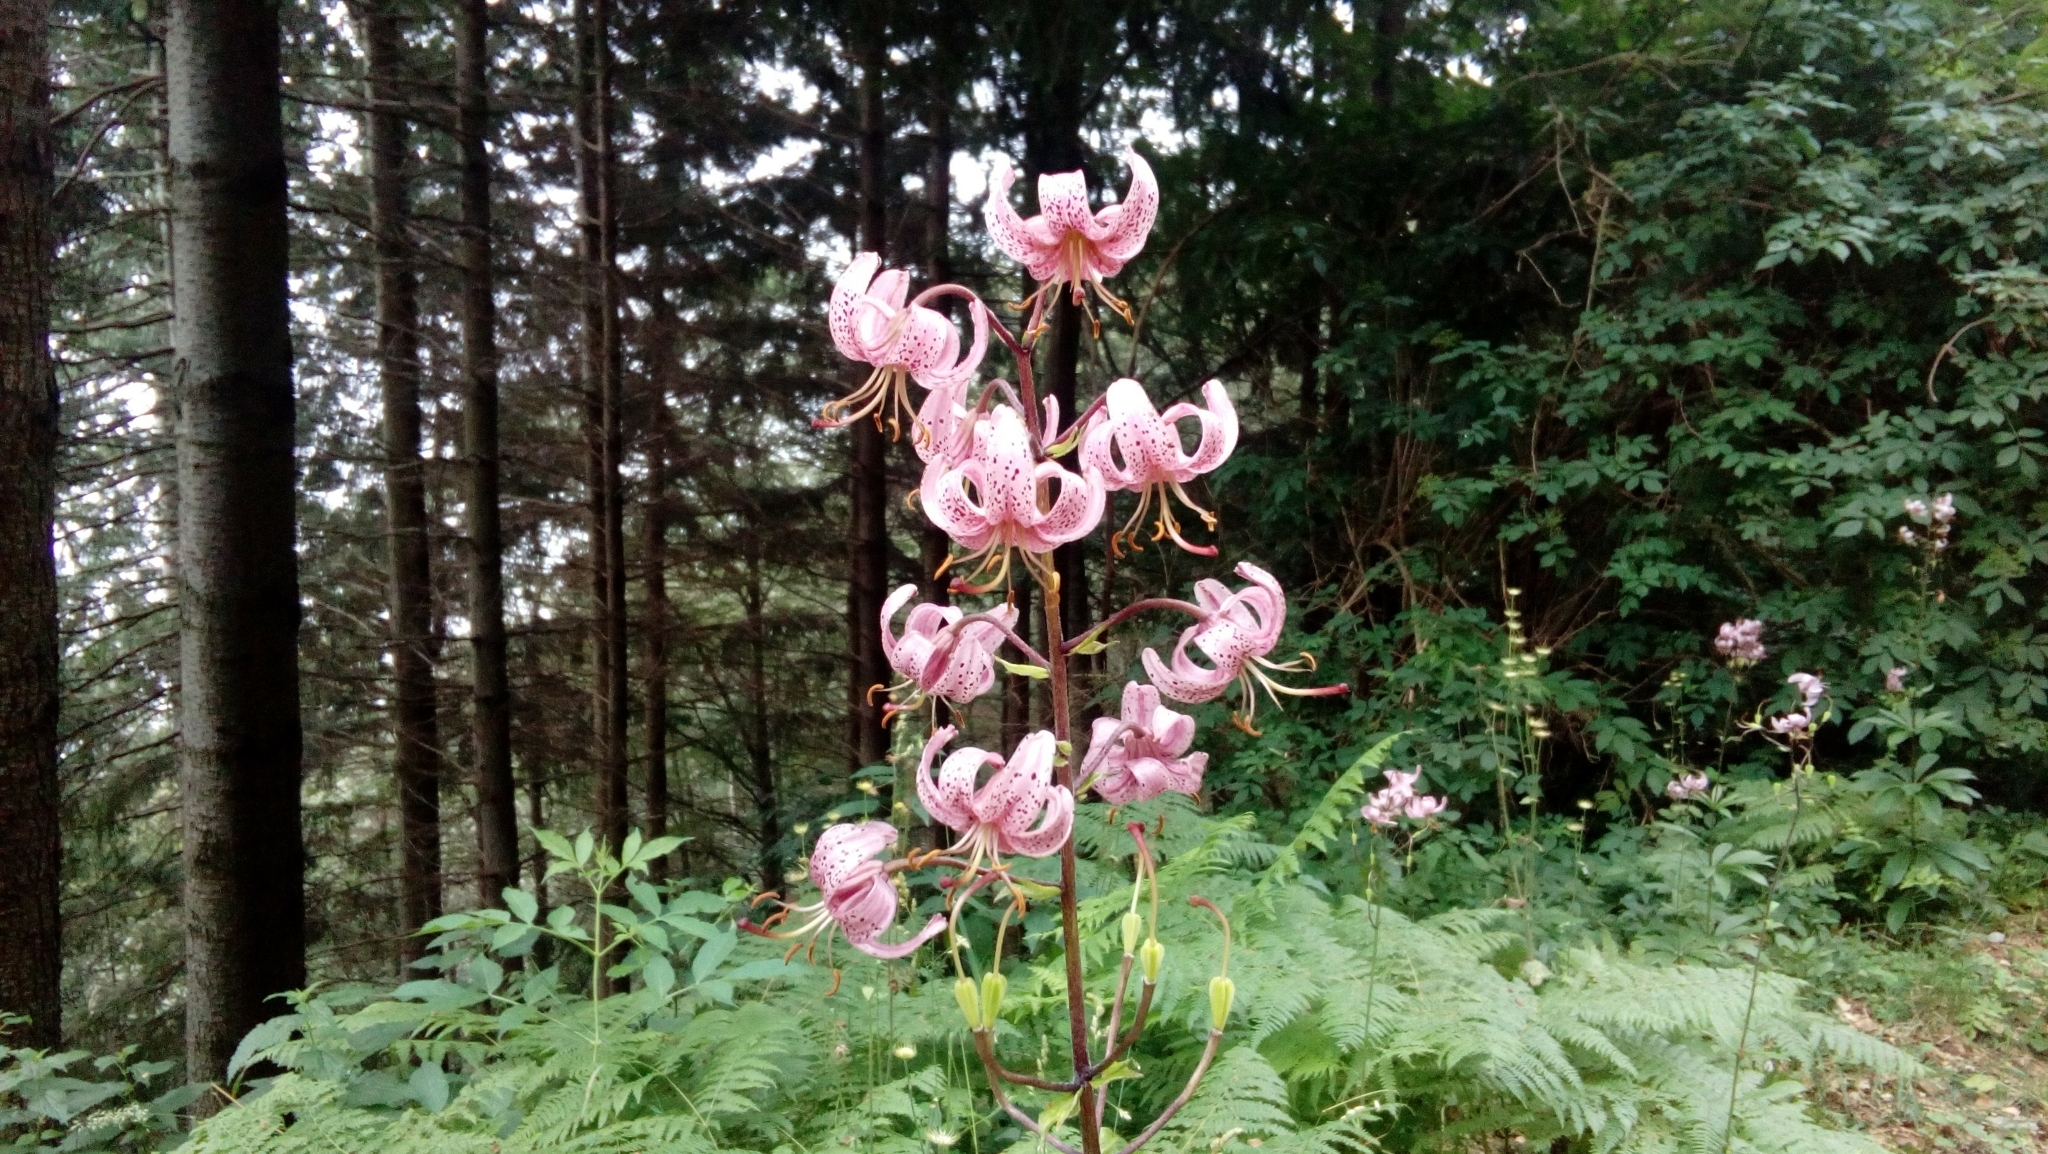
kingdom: Plantae
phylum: Tracheophyta
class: Liliopsida
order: Liliales
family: Liliaceae
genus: Lilium
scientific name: Lilium martagon
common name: Martagon lily
